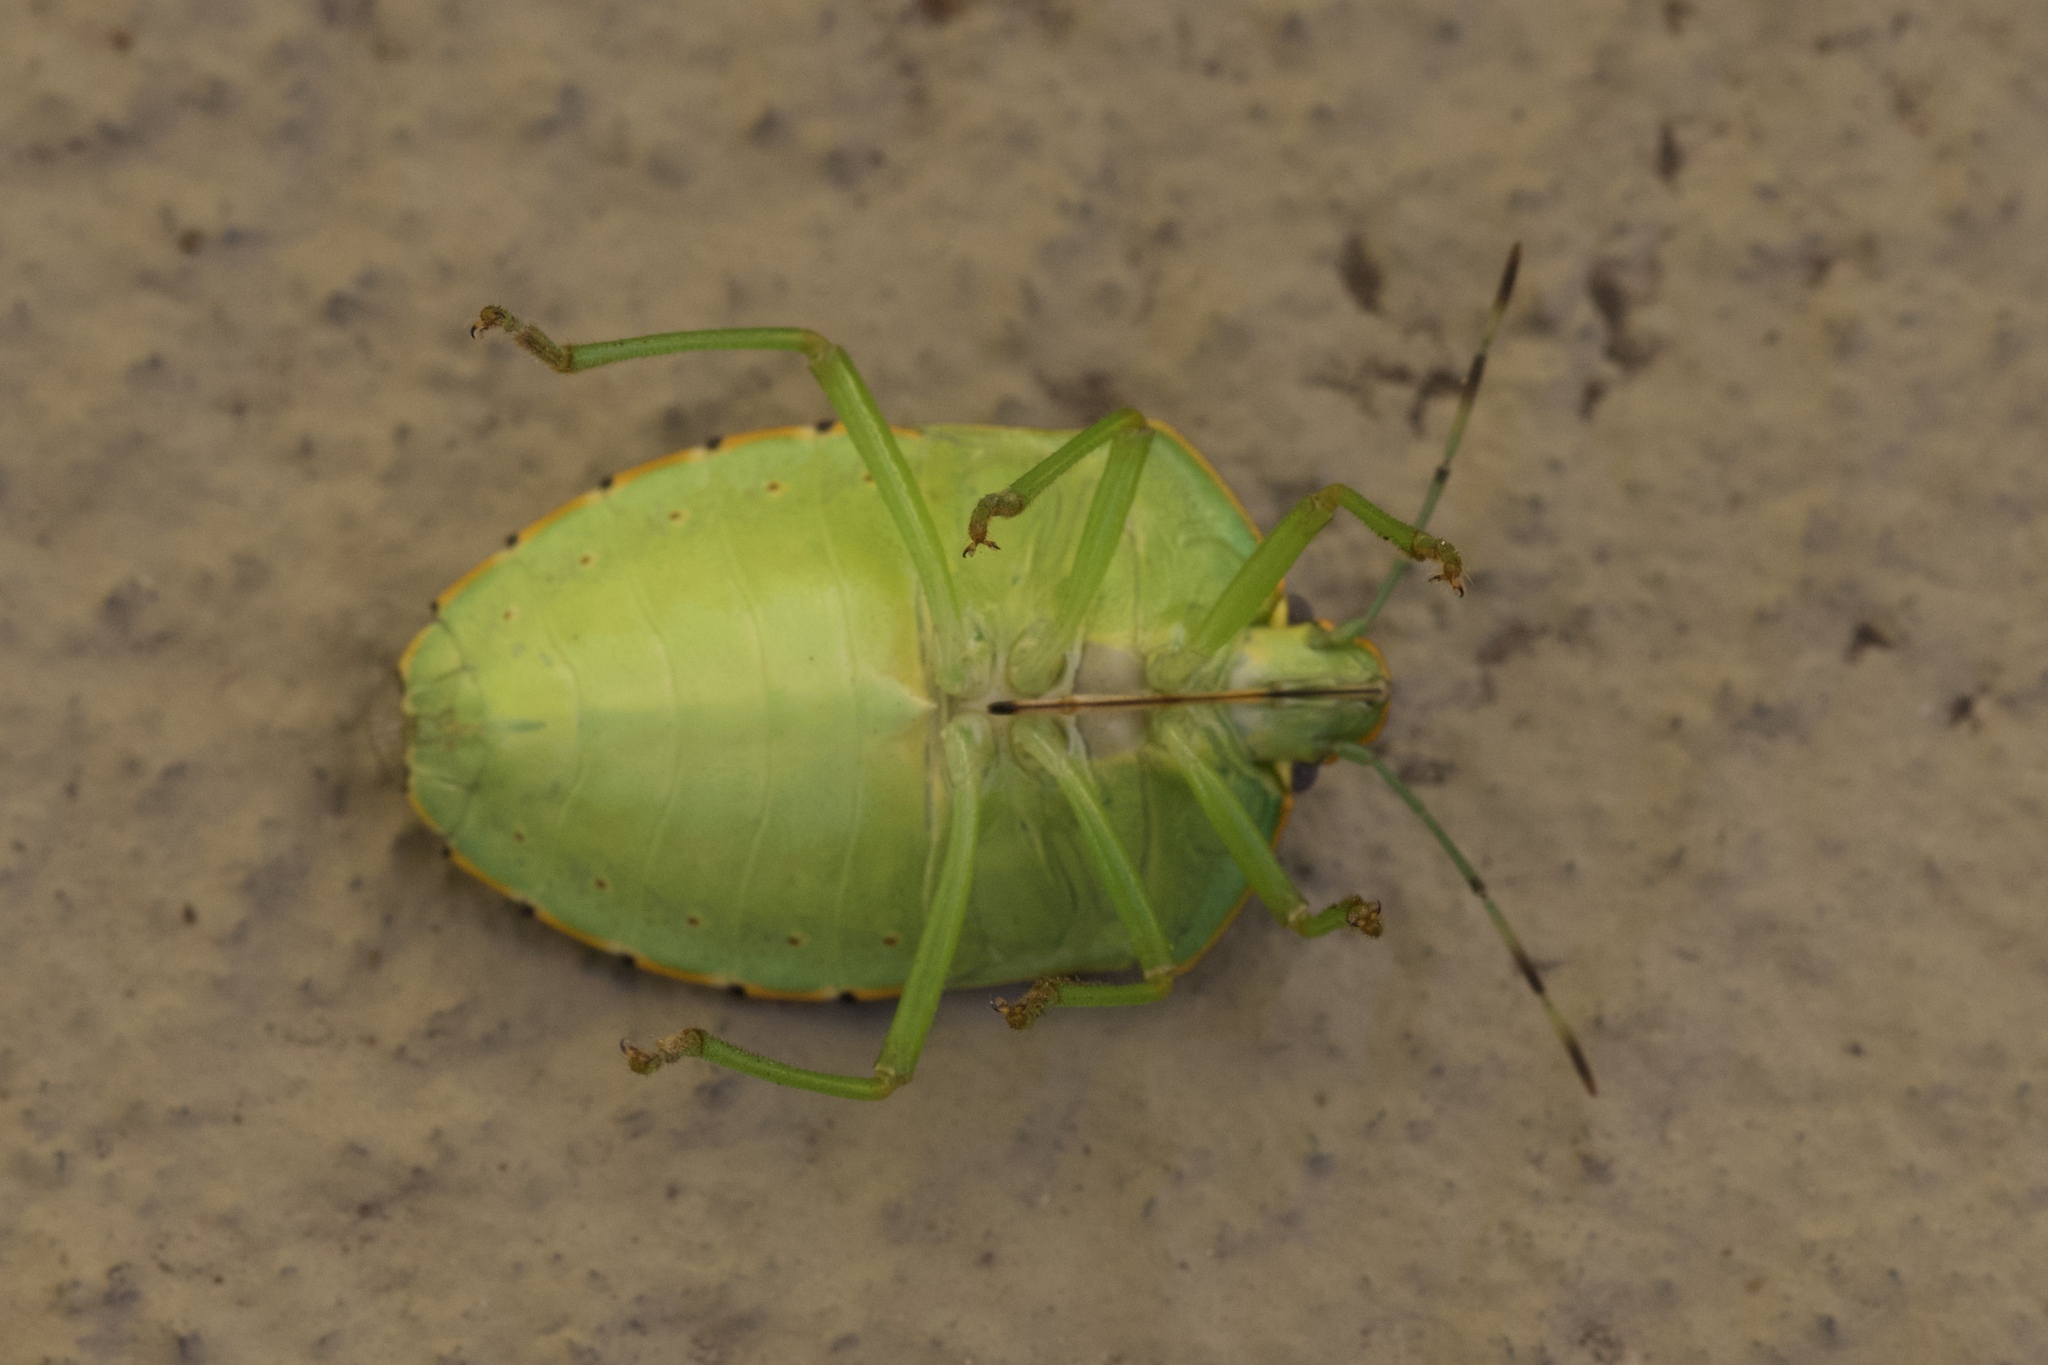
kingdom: Animalia
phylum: Arthropoda
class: Insecta
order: Hemiptera
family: Pentatomidae
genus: Chinavia
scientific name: Chinavia hilaris
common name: Green stink bug
